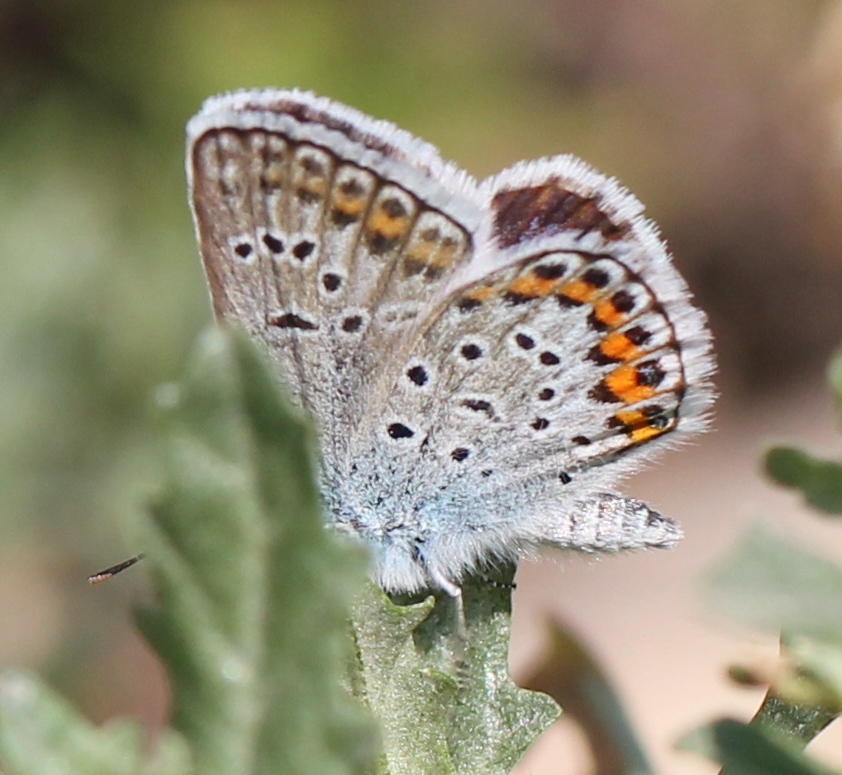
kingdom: Animalia
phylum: Arthropoda
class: Insecta
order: Lepidoptera
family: Lycaenidae
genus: Plebejus
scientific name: Plebejus argus
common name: Silver-studded blue
